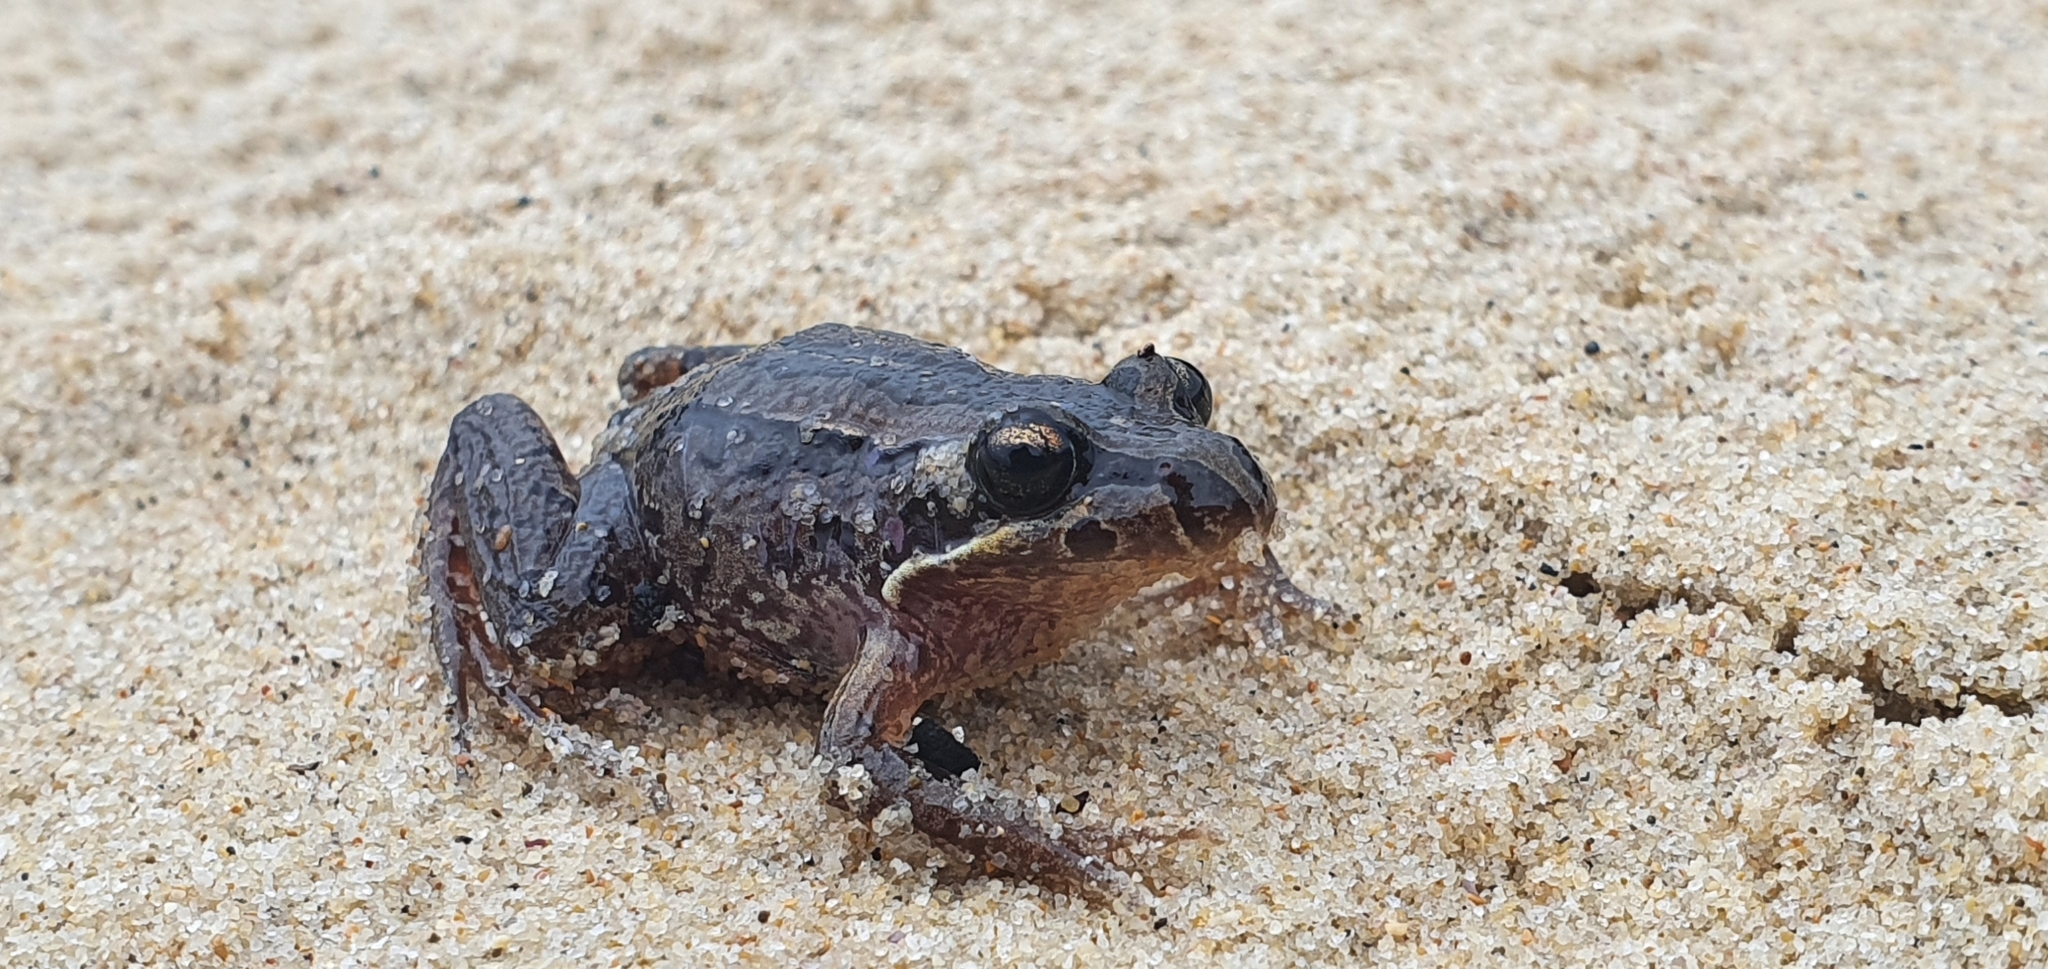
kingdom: Animalia
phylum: Chordata
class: Amphibia
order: Anura
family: Limnodynastidae
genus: Limnodynastes
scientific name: Limnodynastes peronii
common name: Brown frog
